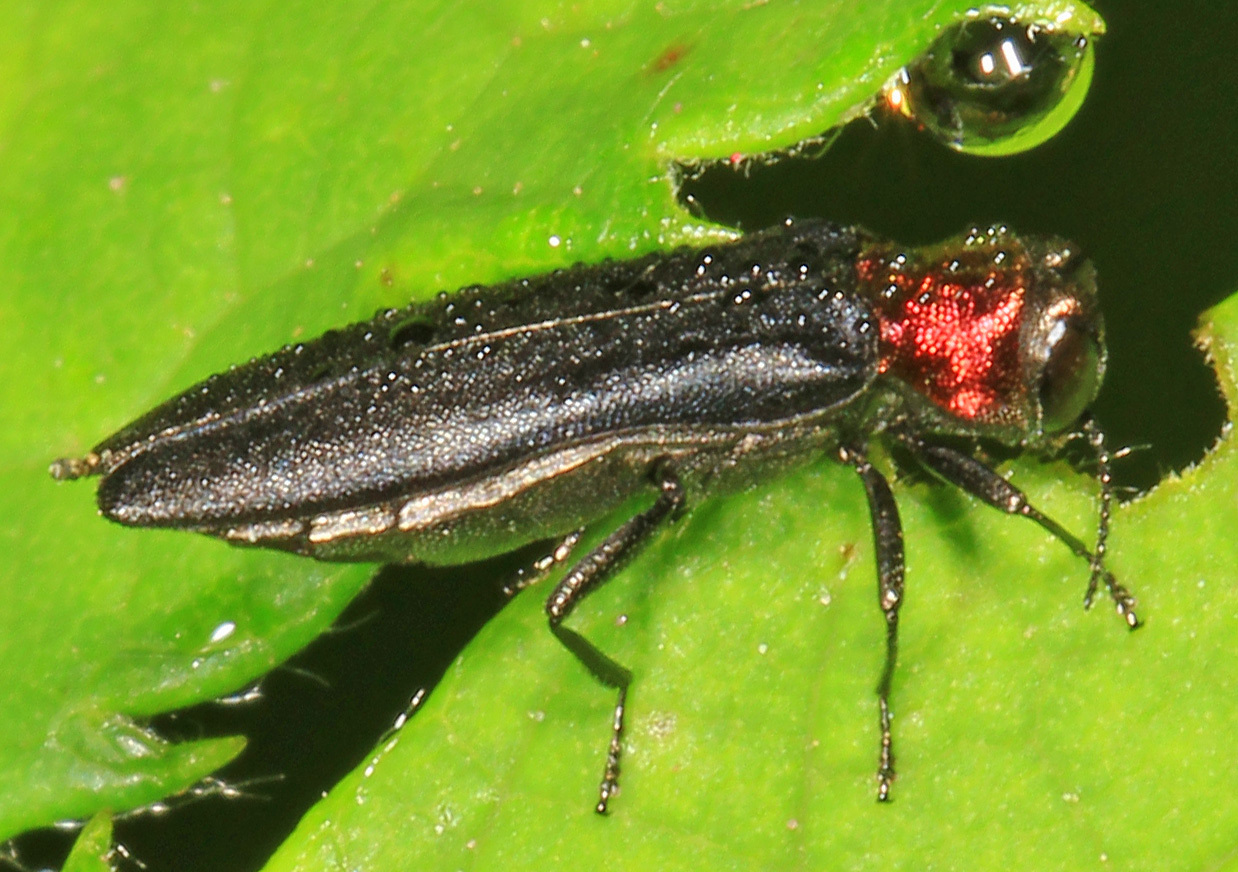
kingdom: Animalia
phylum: Arthropoda
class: Insecta
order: Coleoptera
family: Buprestidae
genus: Agrilus
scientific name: Agrilus ruficollis
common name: Red-necked cane borer beetle
